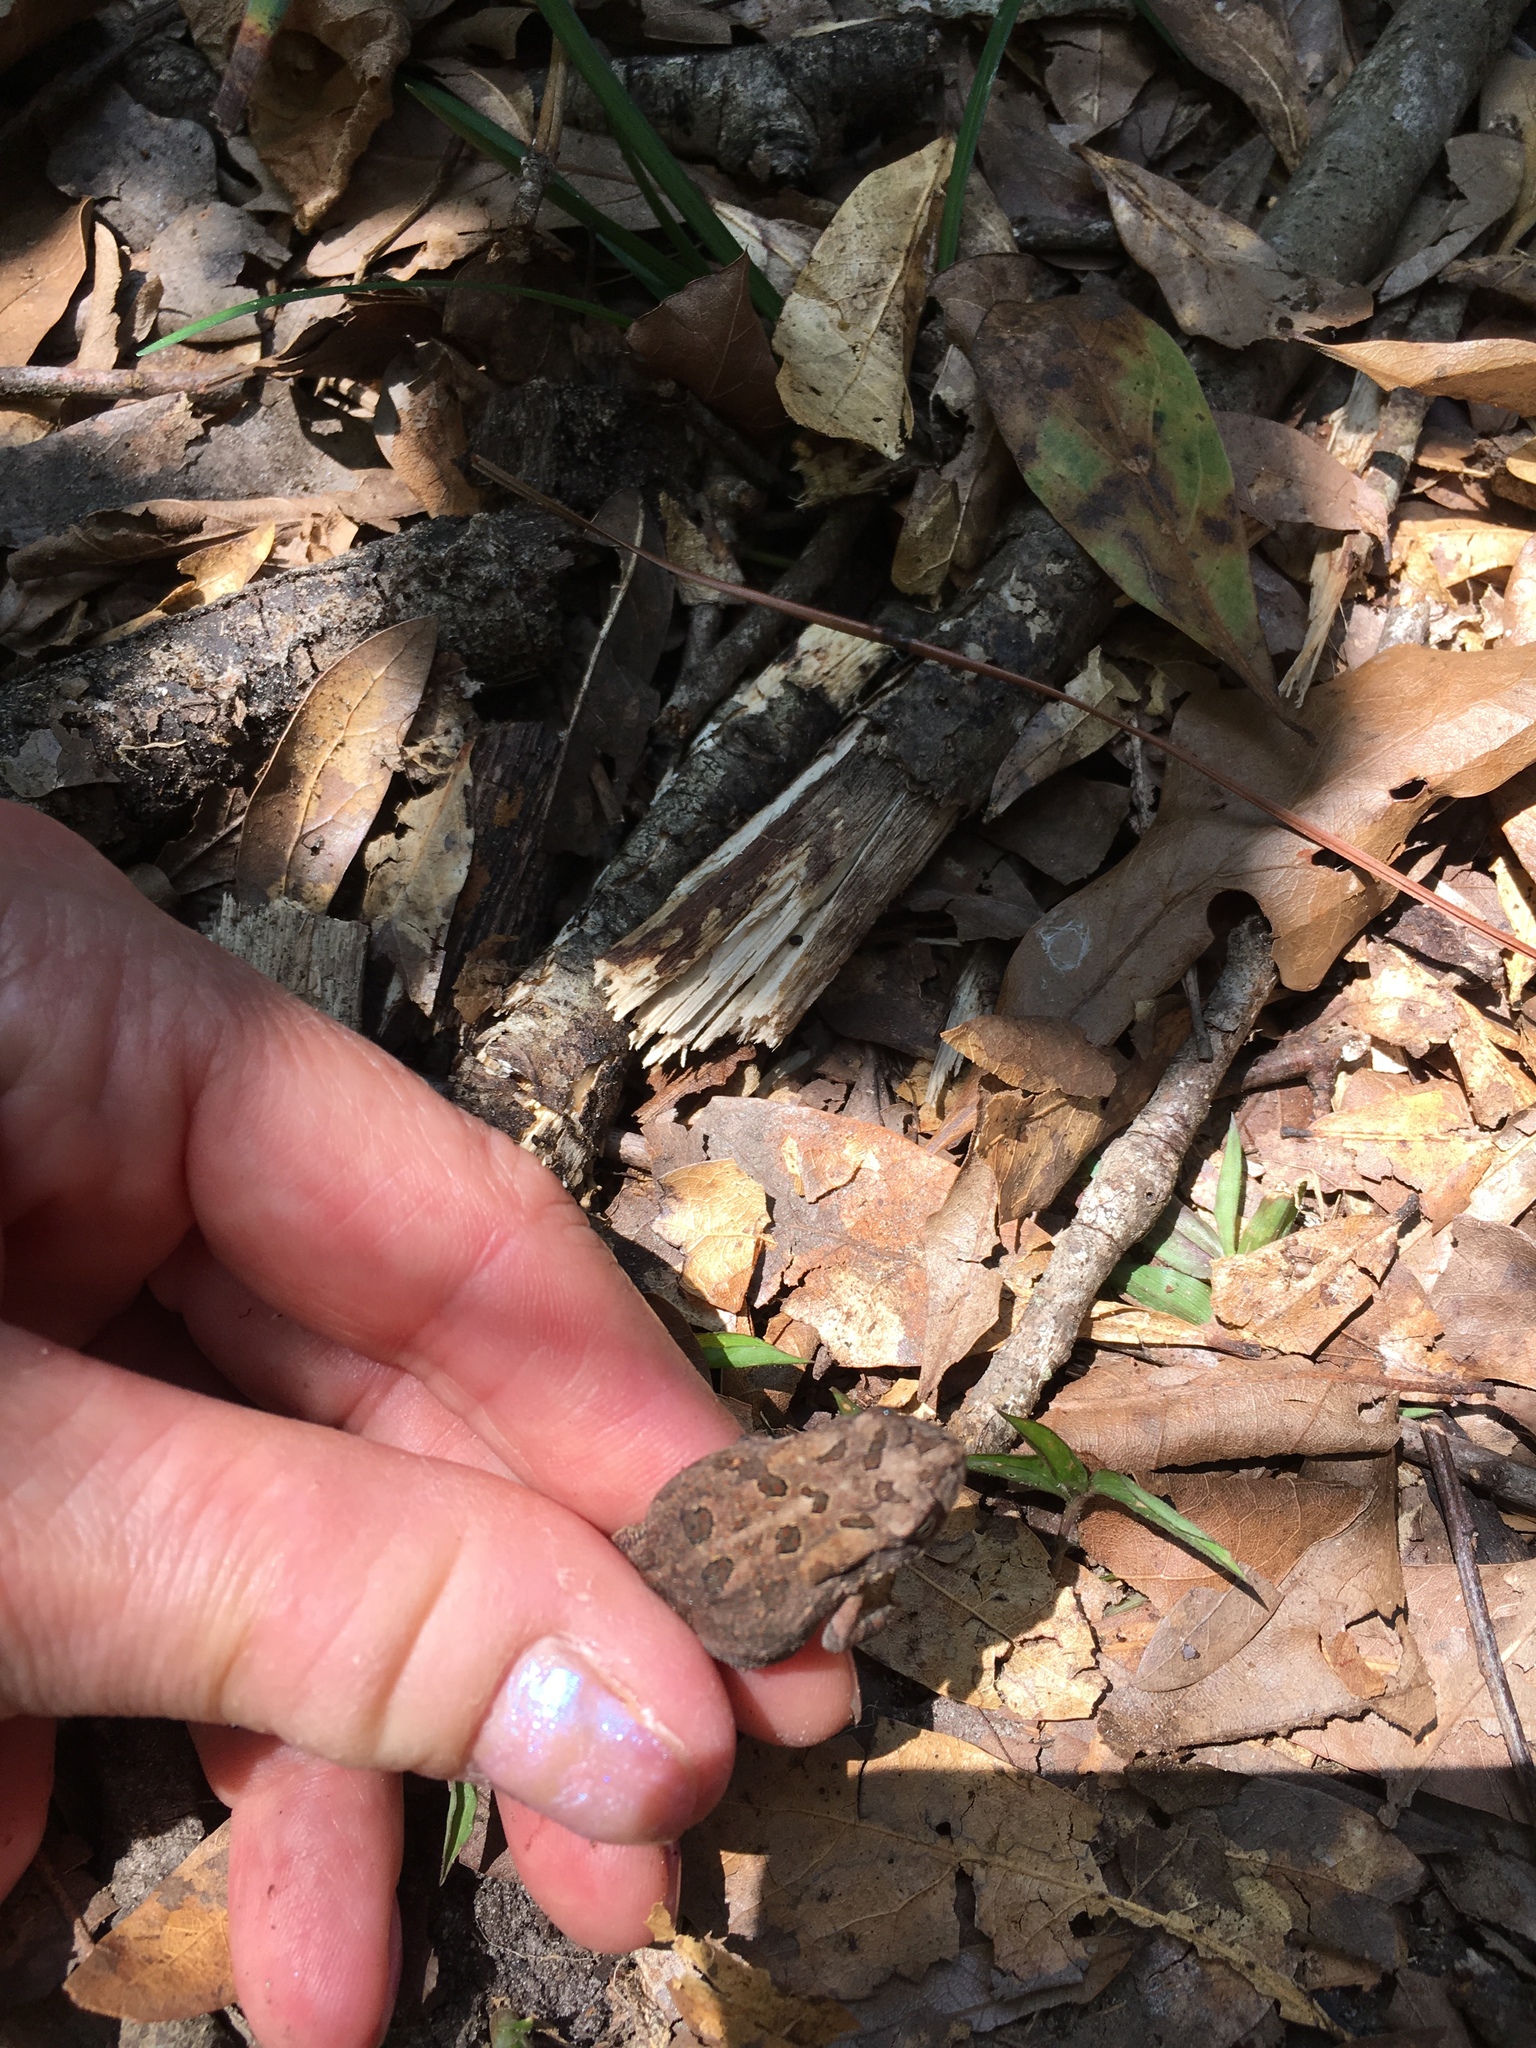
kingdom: Animalia
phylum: Chordata
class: Amphibia
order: Anura
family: Bufonidae
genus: Anaxyrus
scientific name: Anaxyrus terrestris
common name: Southern toad
